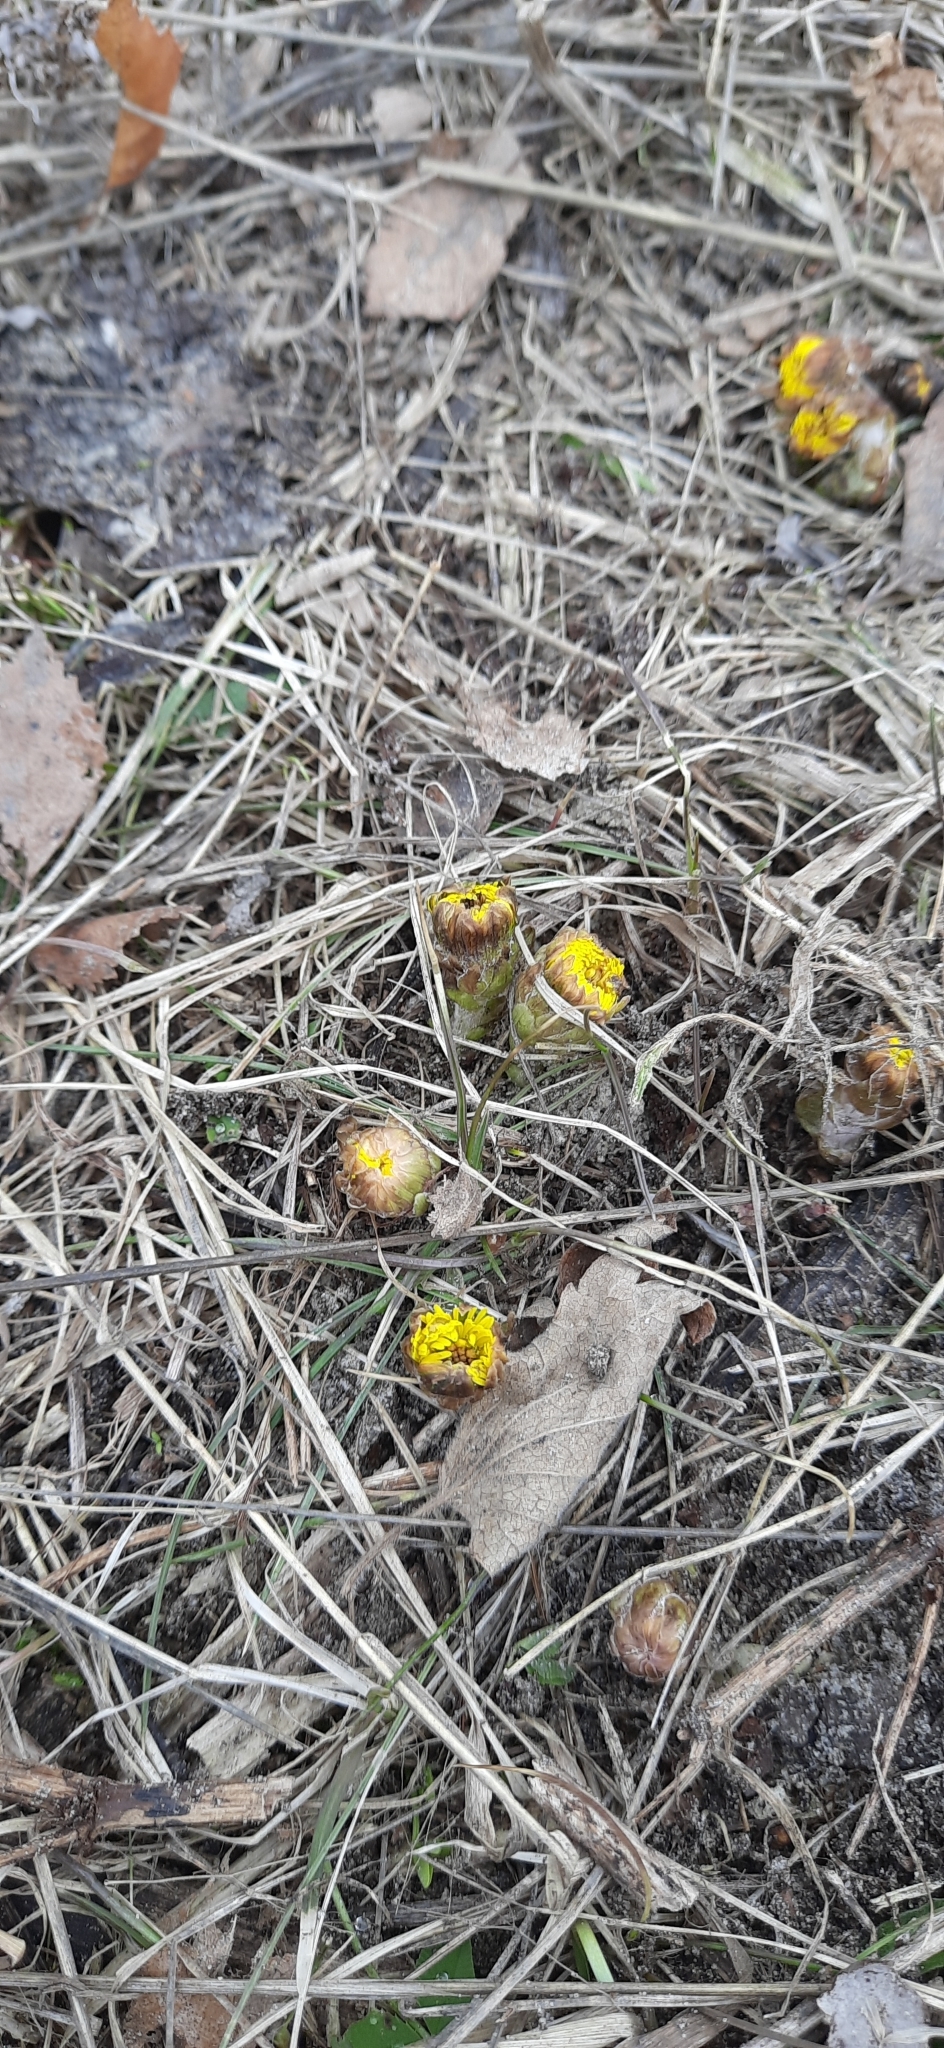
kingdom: Plantae
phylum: Tracheophyta
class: Magnoliopsida
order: Asterales
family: Asteraceae
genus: Tussilago
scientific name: Tussilago farfara
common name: Coltsfoot
